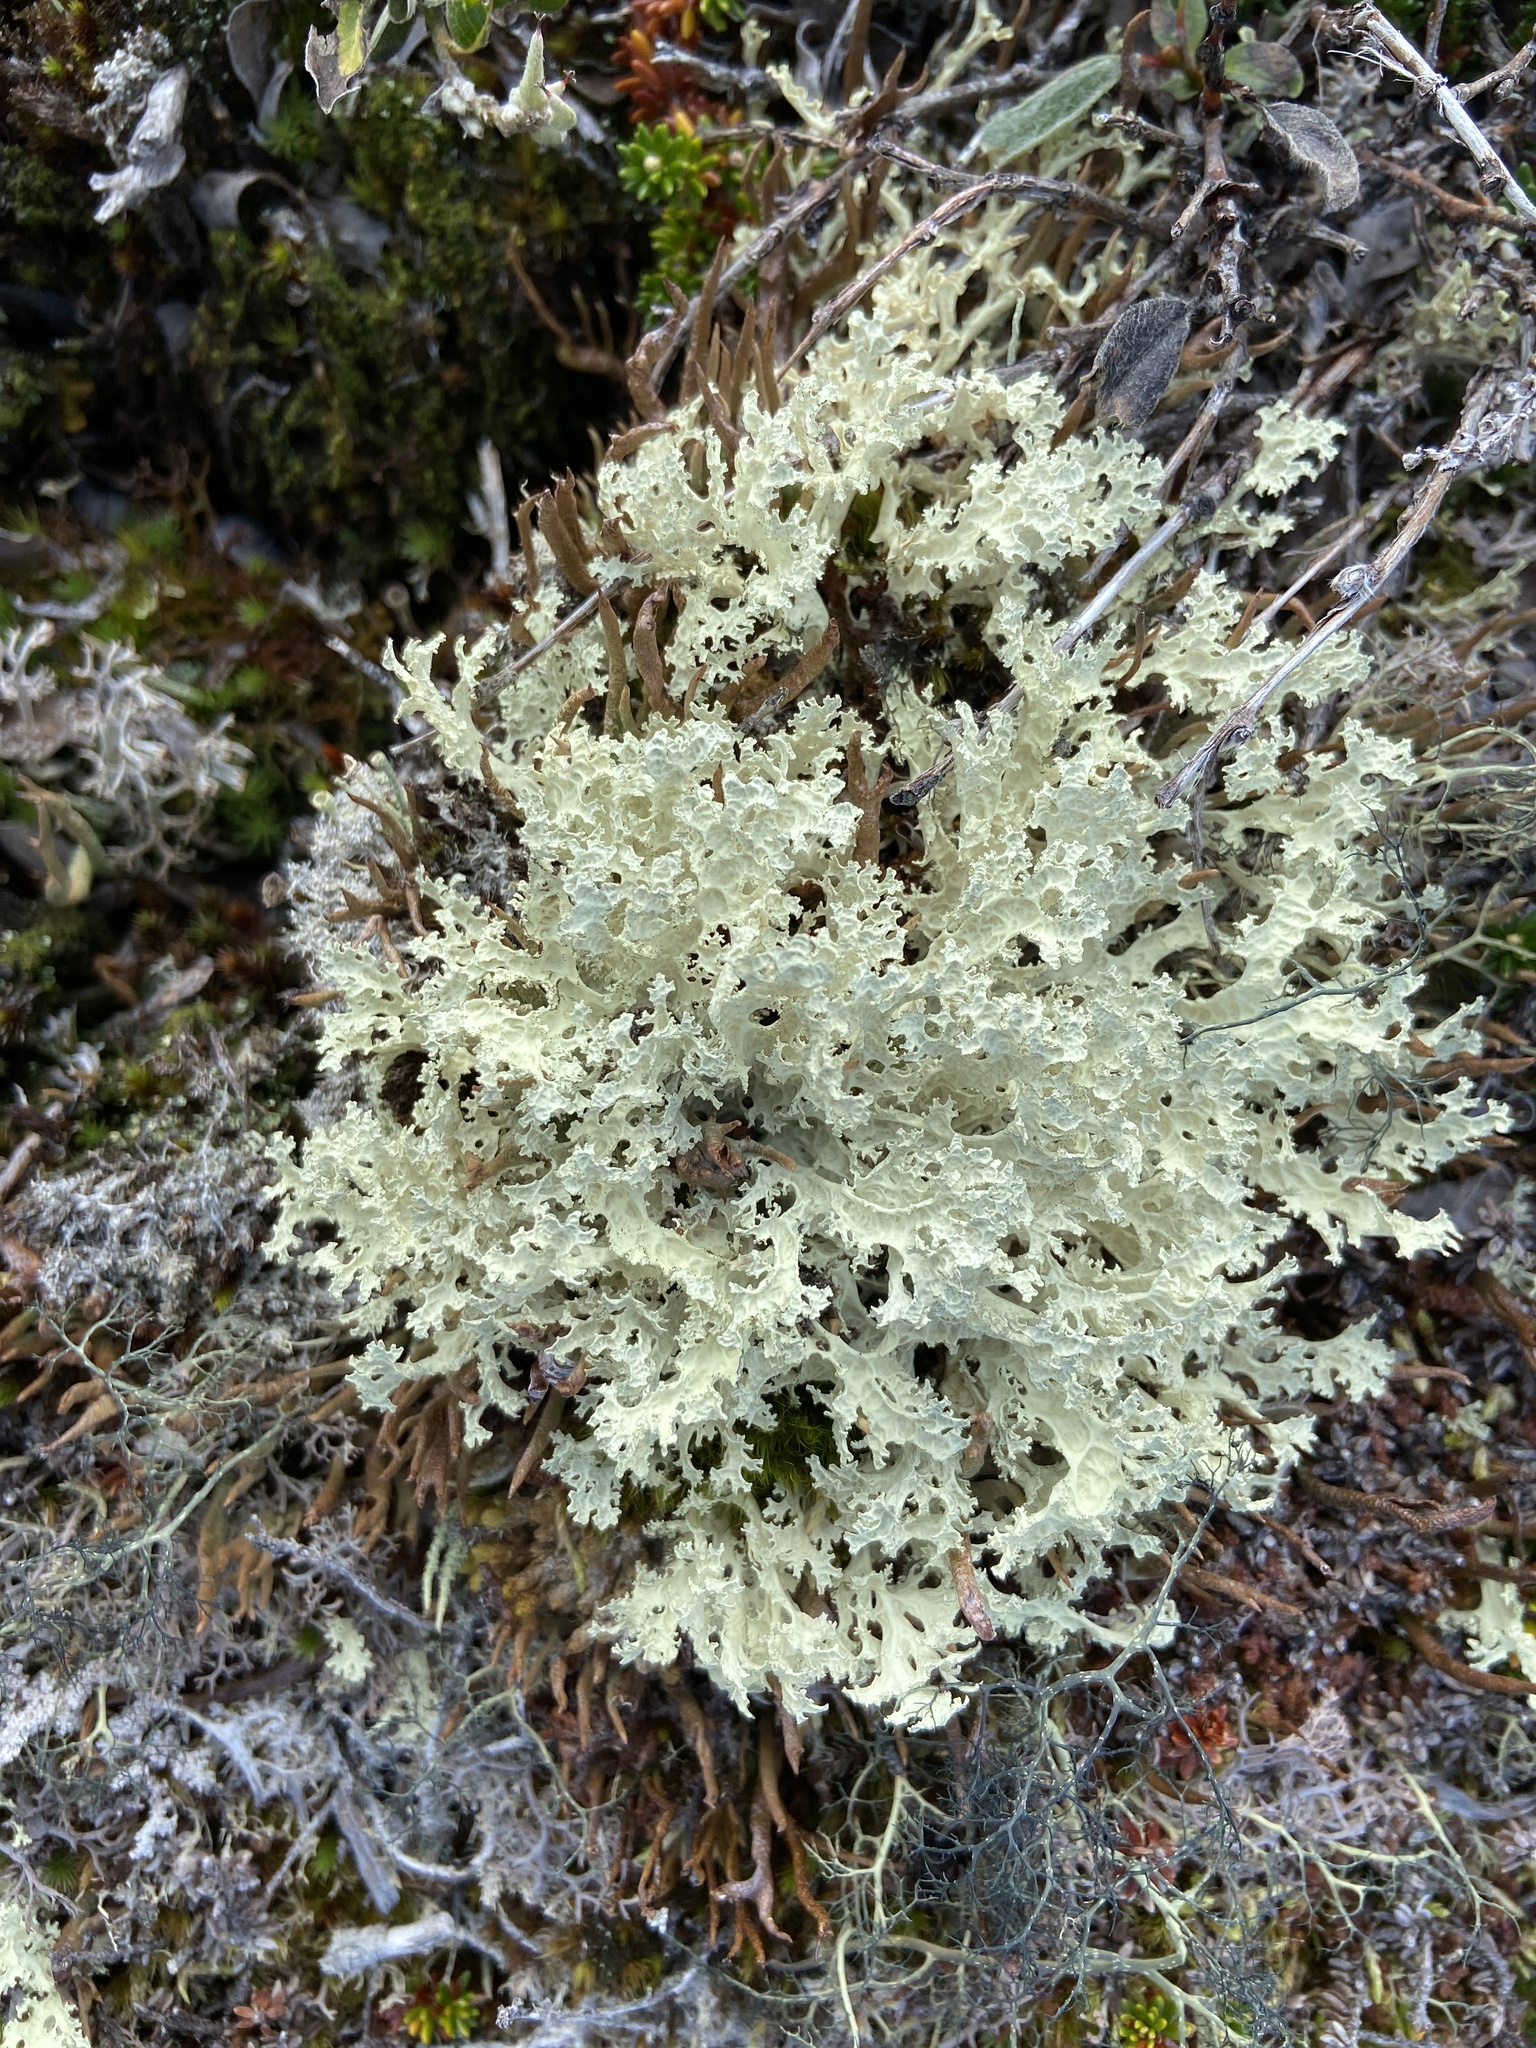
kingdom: Fungi
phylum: Ascomycota
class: Lecanoromycetes
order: Lecanorales
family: Parmeliaceae
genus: Nephromopsis
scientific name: Nephromopsis nivalis
